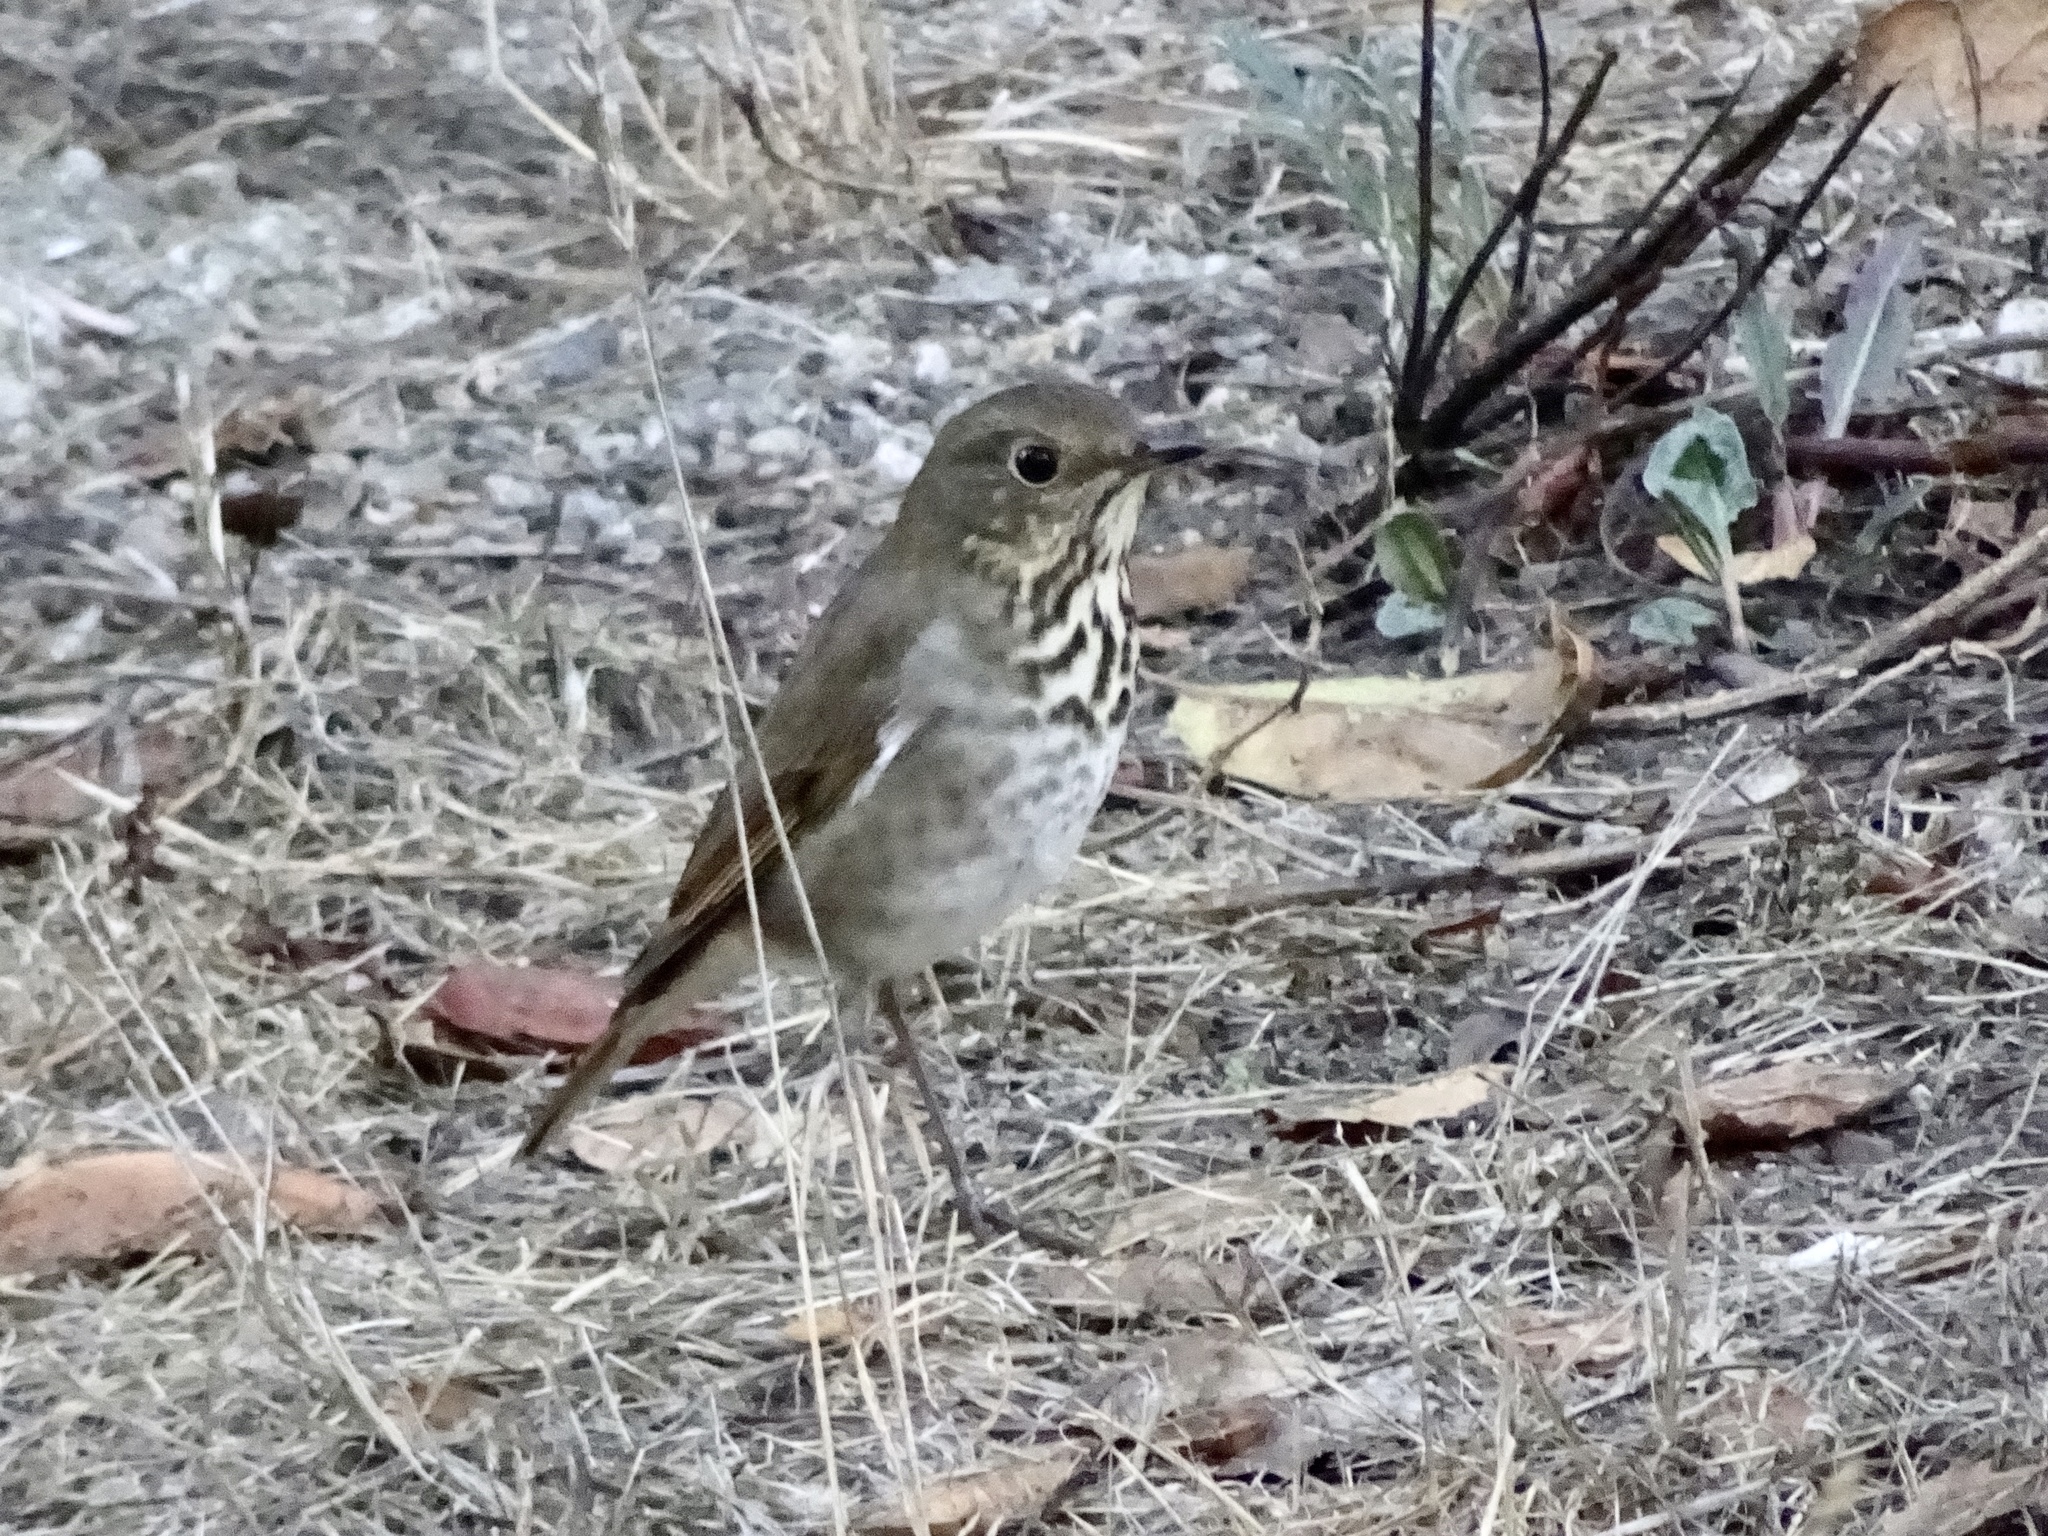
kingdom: Animalia
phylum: Chordata
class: Aves
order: Passeriformes
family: Turdidae
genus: Catharus
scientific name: Catharus guttatus
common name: Hermit thrush
